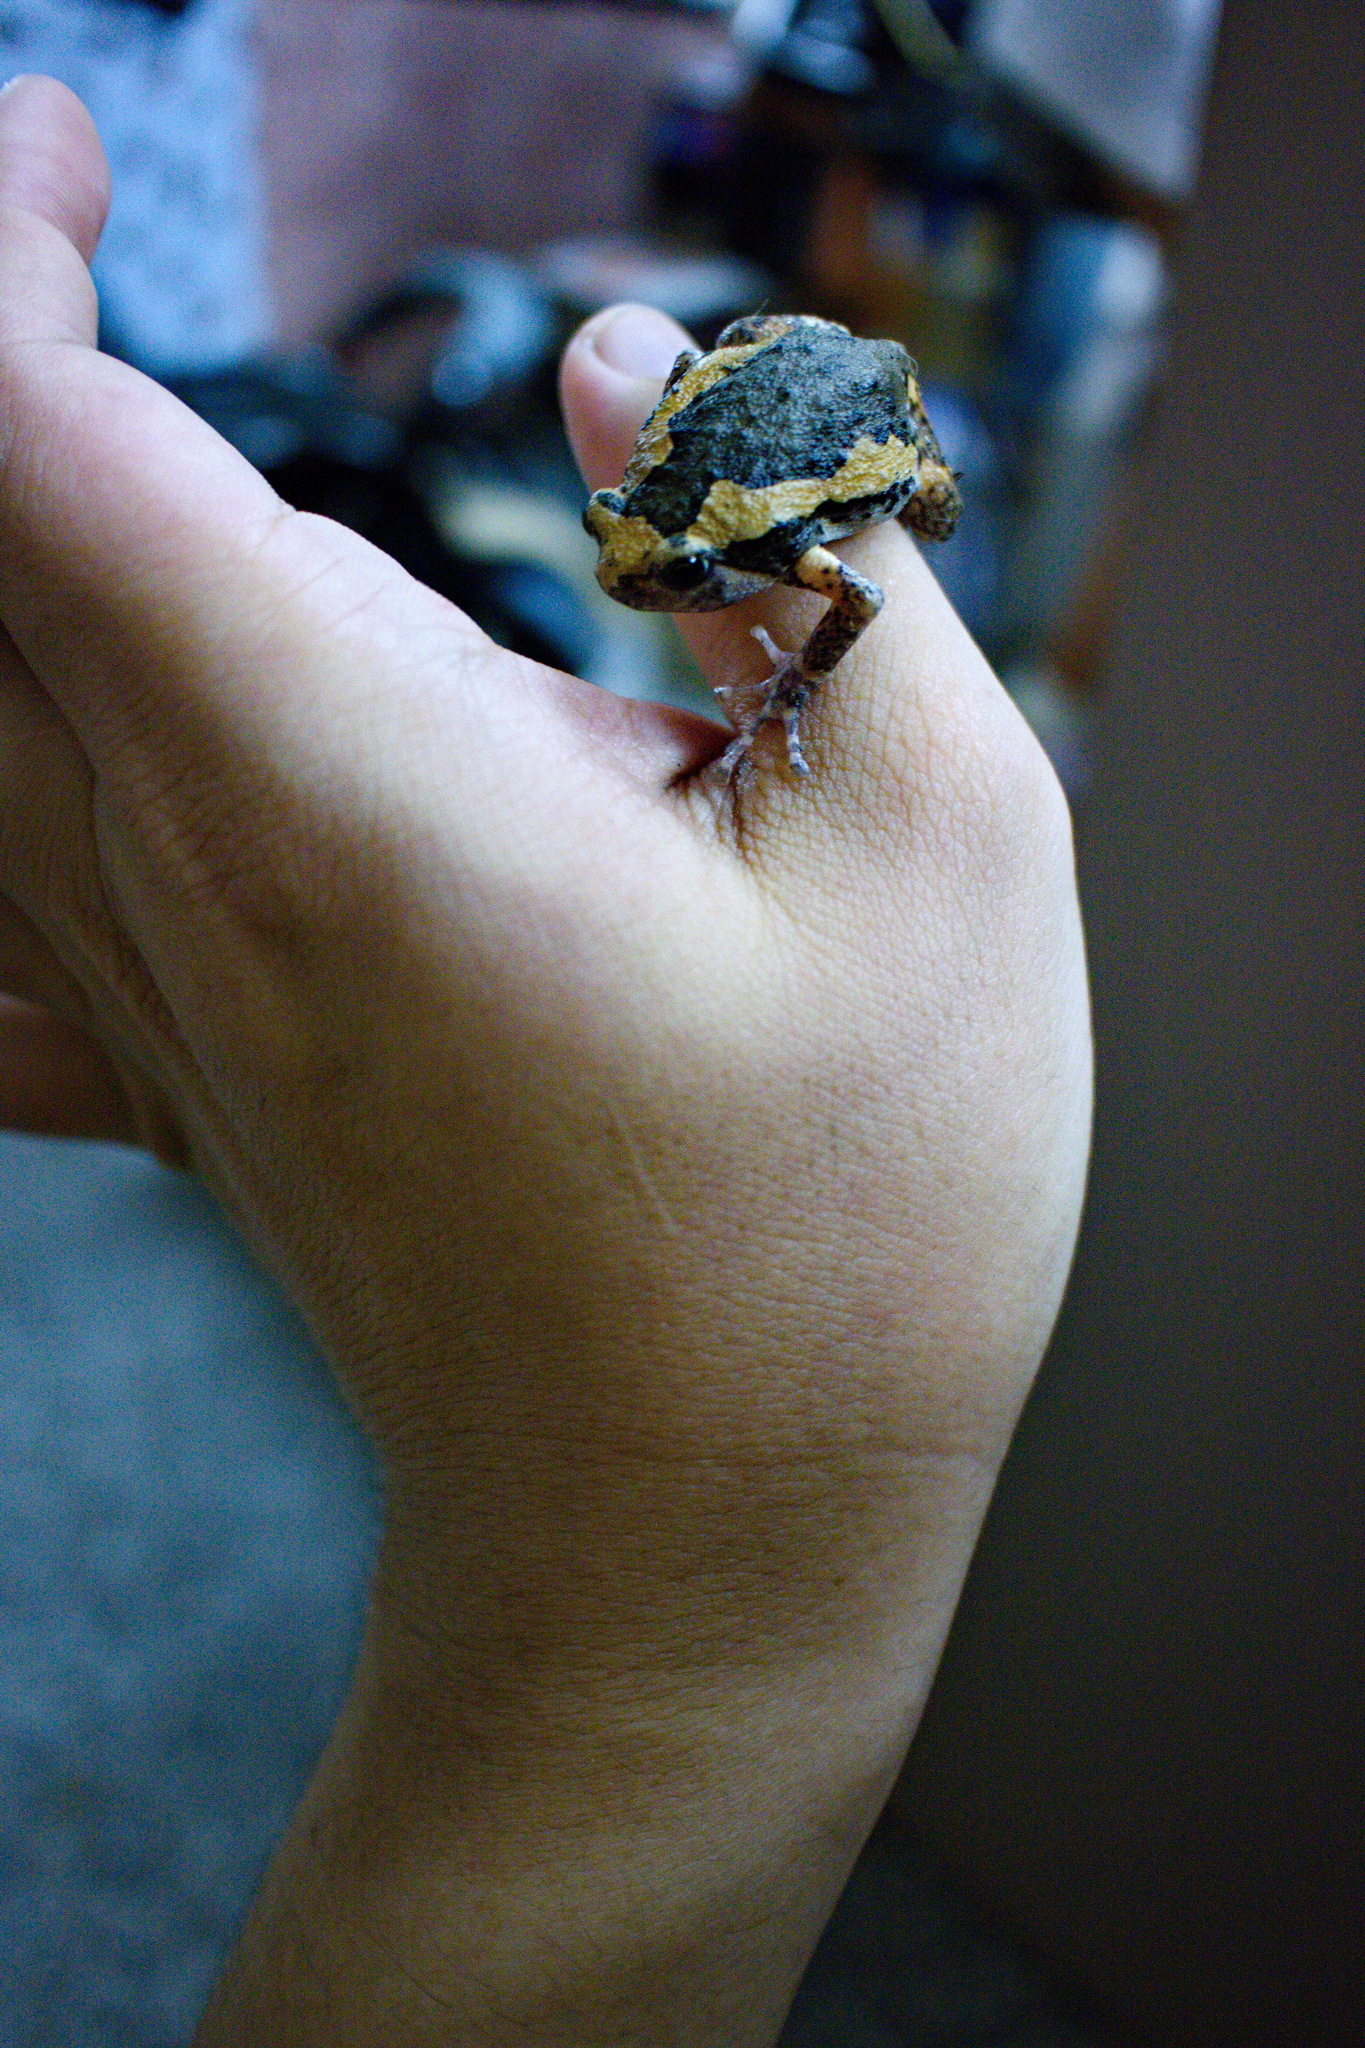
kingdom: Animalia
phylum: Chordata
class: Amphibia
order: Anura
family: Microhylidae
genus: Kaloula
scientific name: Kaloula pulchra
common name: Common,banded bullfrog
